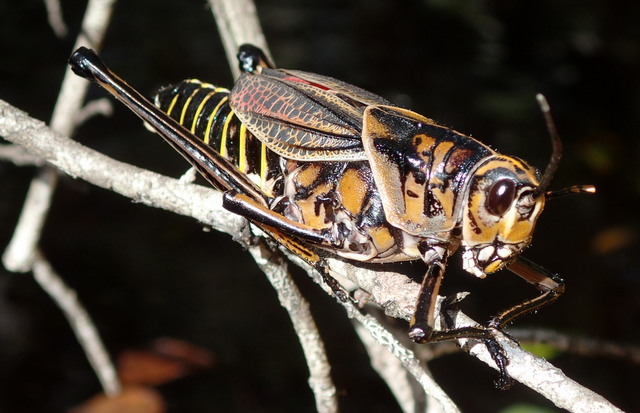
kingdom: Animalia
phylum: Arthropoda
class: Insecta
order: Orthoptera
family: Romaleidae
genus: Romalea
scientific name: Romalea microptera
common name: Eastern lubber grasshopper
